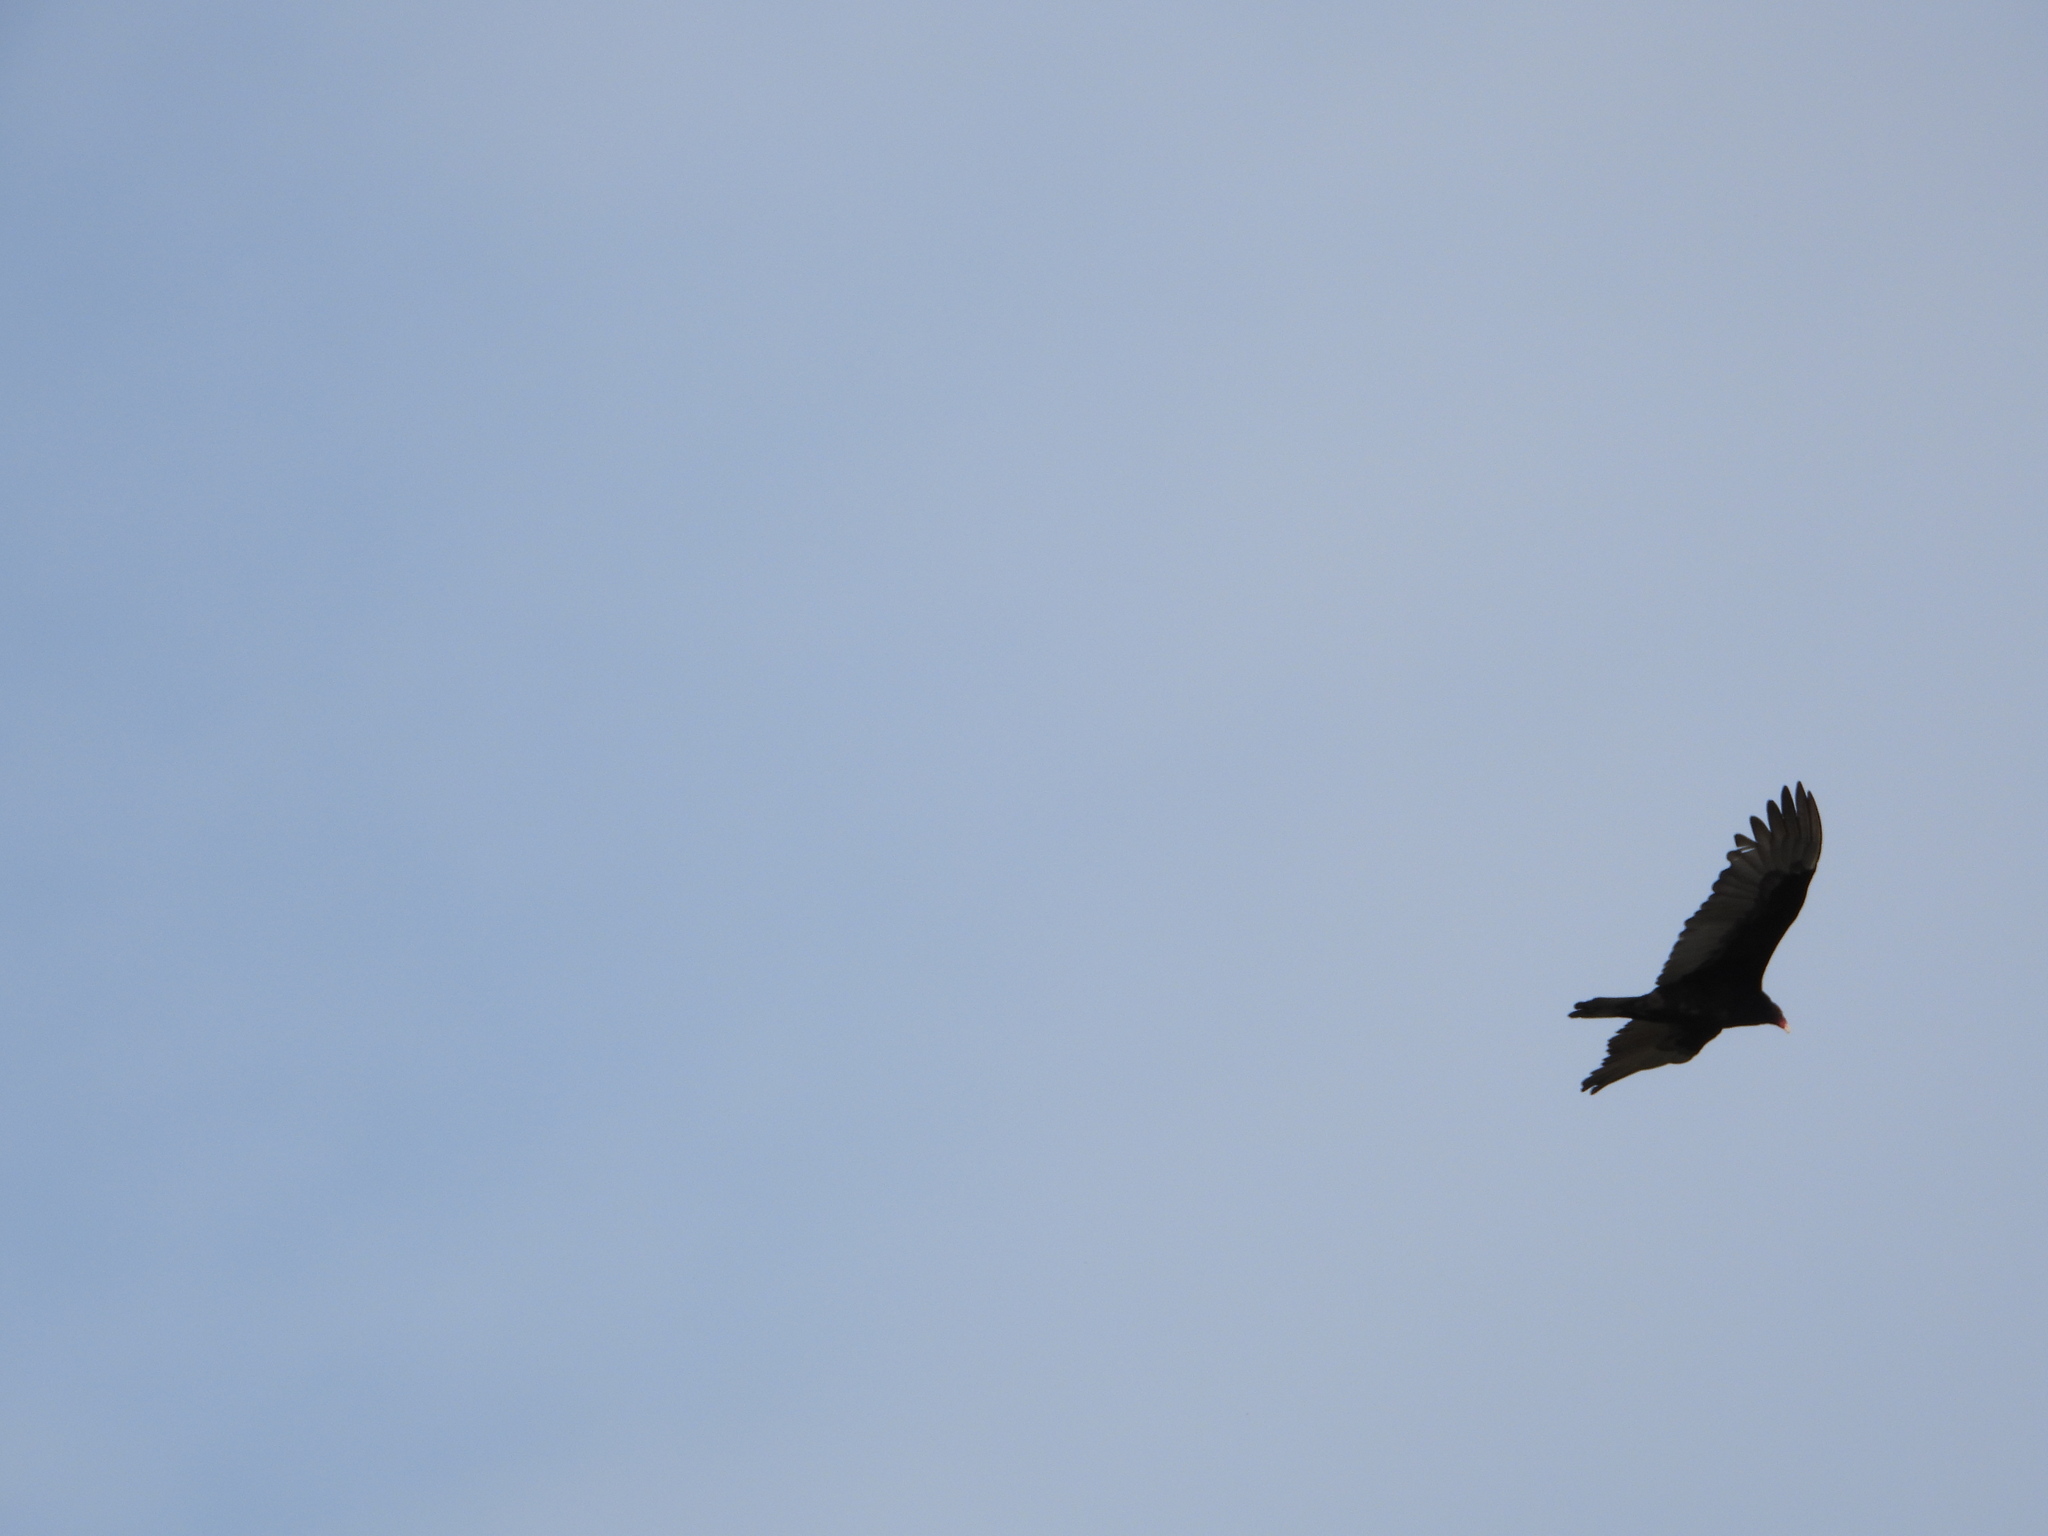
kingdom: Animalia
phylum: Chordata
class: Aves
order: Accipitriformes
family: Cathartidae
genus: Cathartes
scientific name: Cathartes aura
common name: Turkey vulture
